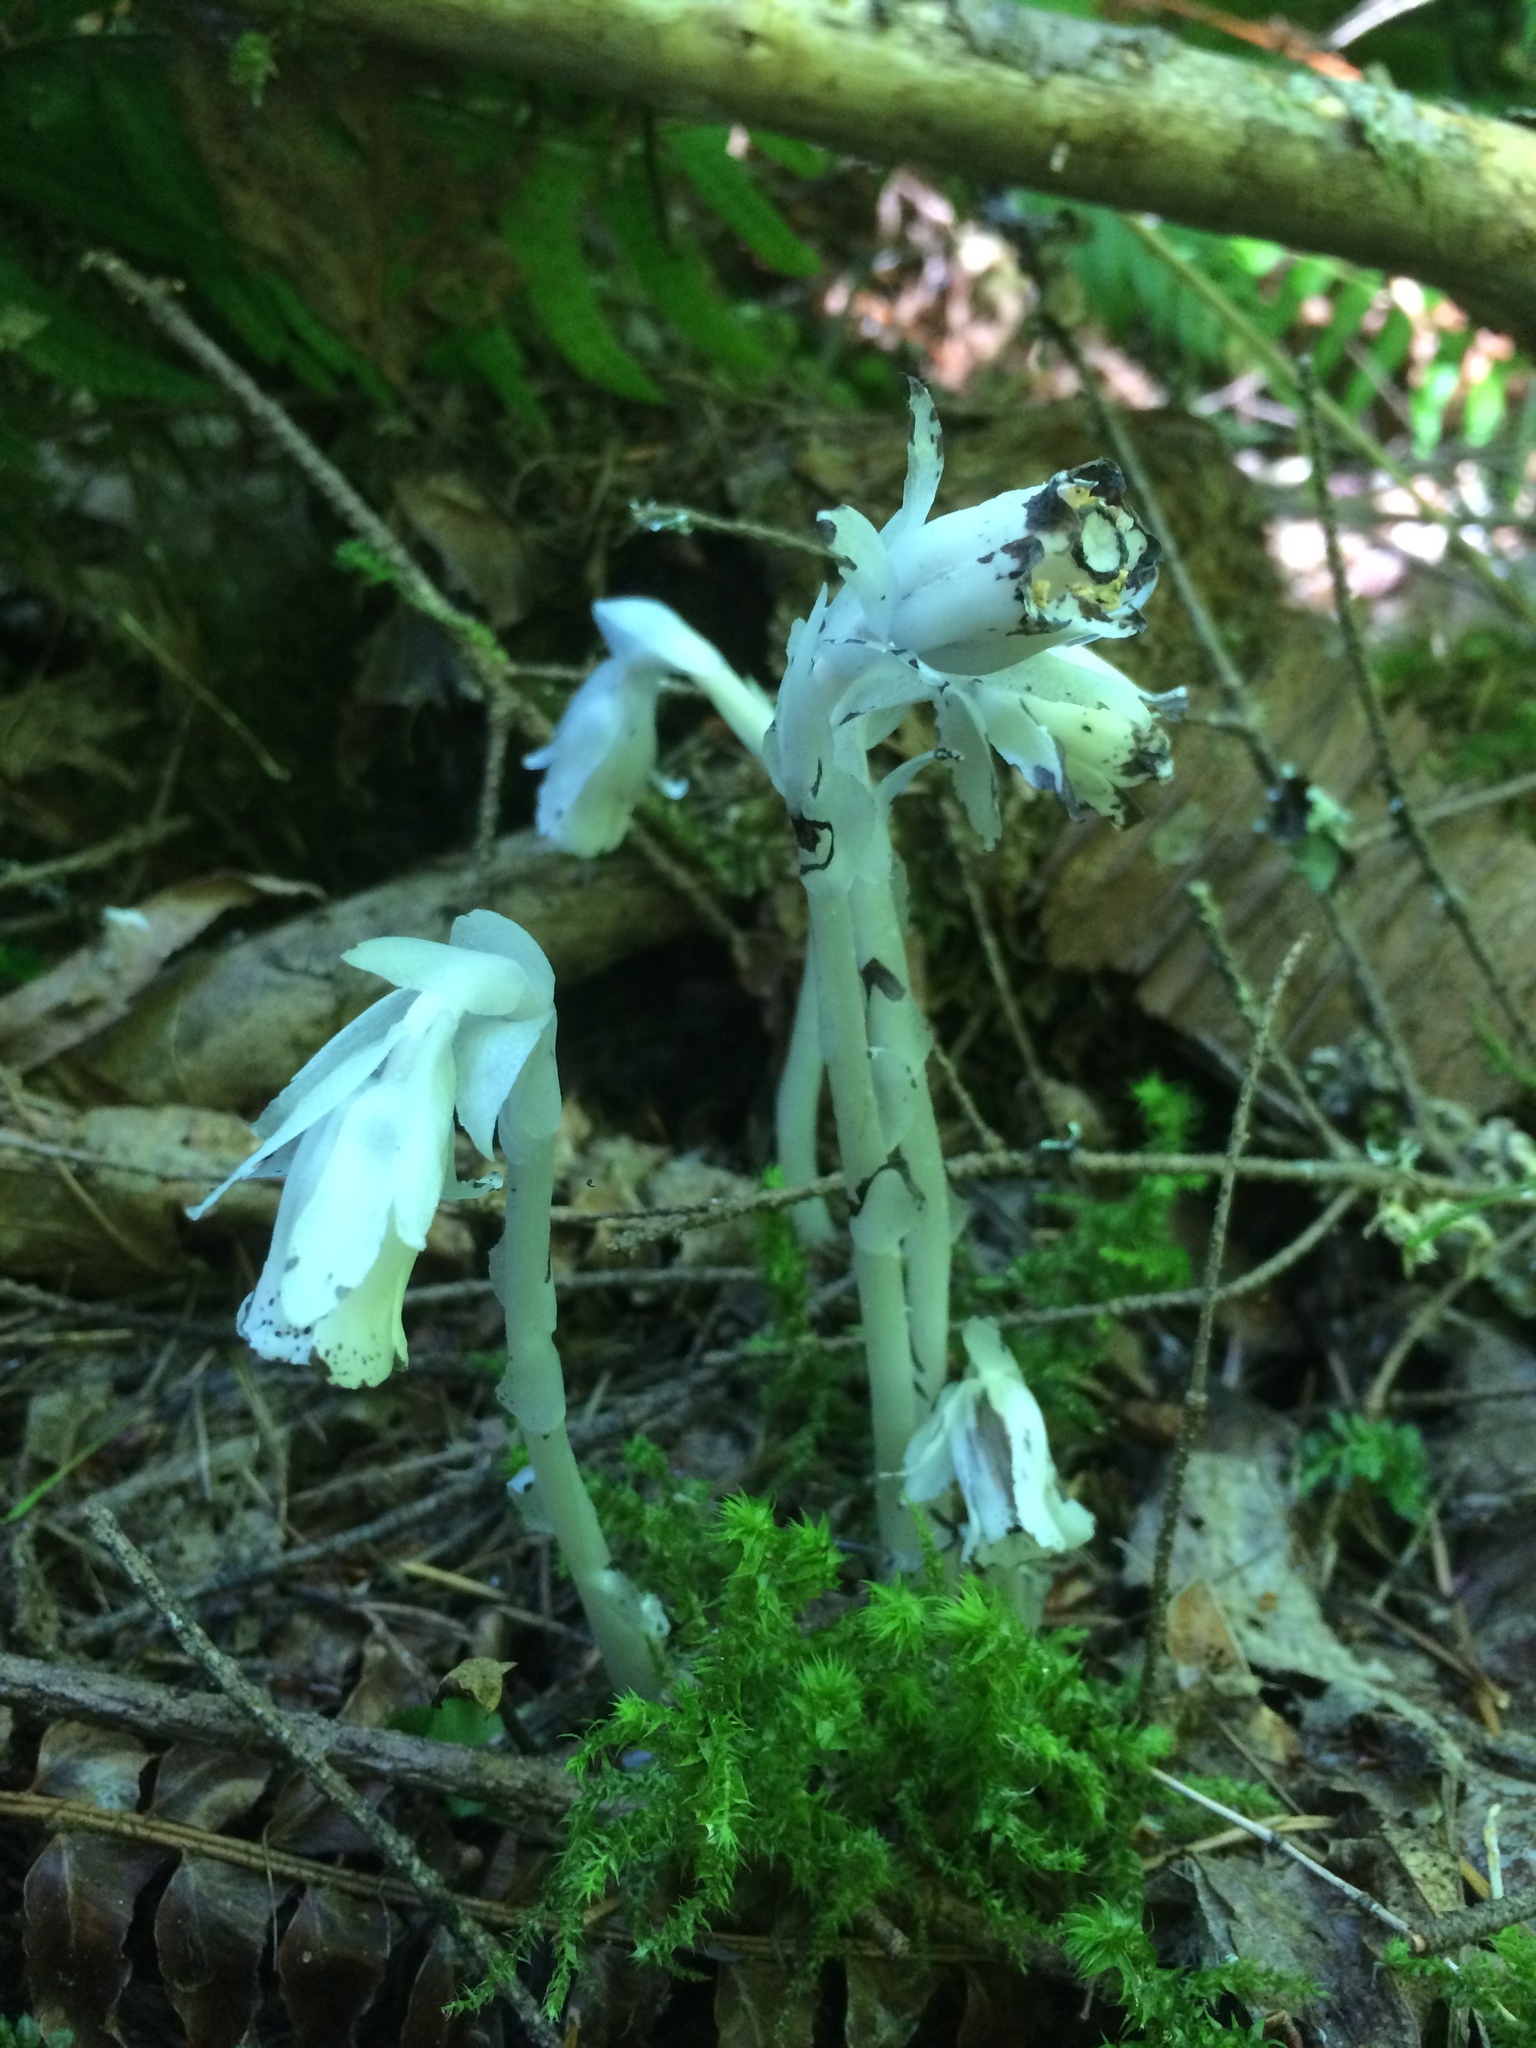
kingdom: Plantae
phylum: Tracheophyta
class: Magnoliopsida
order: Ericales
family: Ericaceae
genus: Monotropa
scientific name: Monotropa uniflora
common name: Convulsion root
